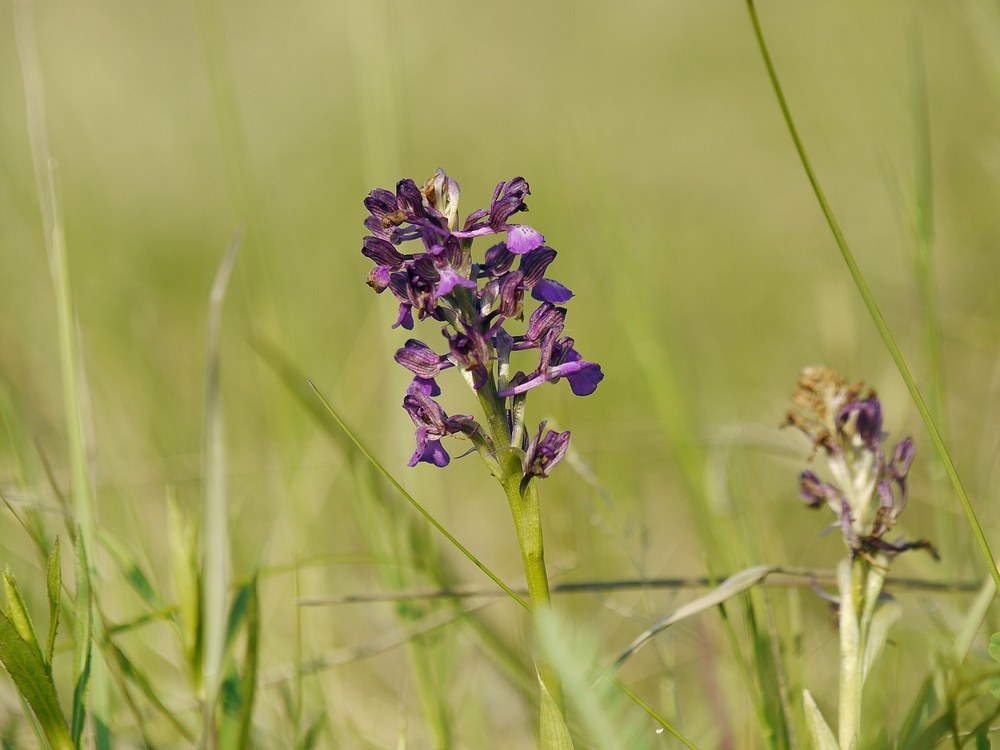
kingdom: Plantae
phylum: Tracheophyta
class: Liliopsida
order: Asparagales
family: Orchidaceae
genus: Anacamptis
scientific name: Anacamptis morio
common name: Green-winged orchid
